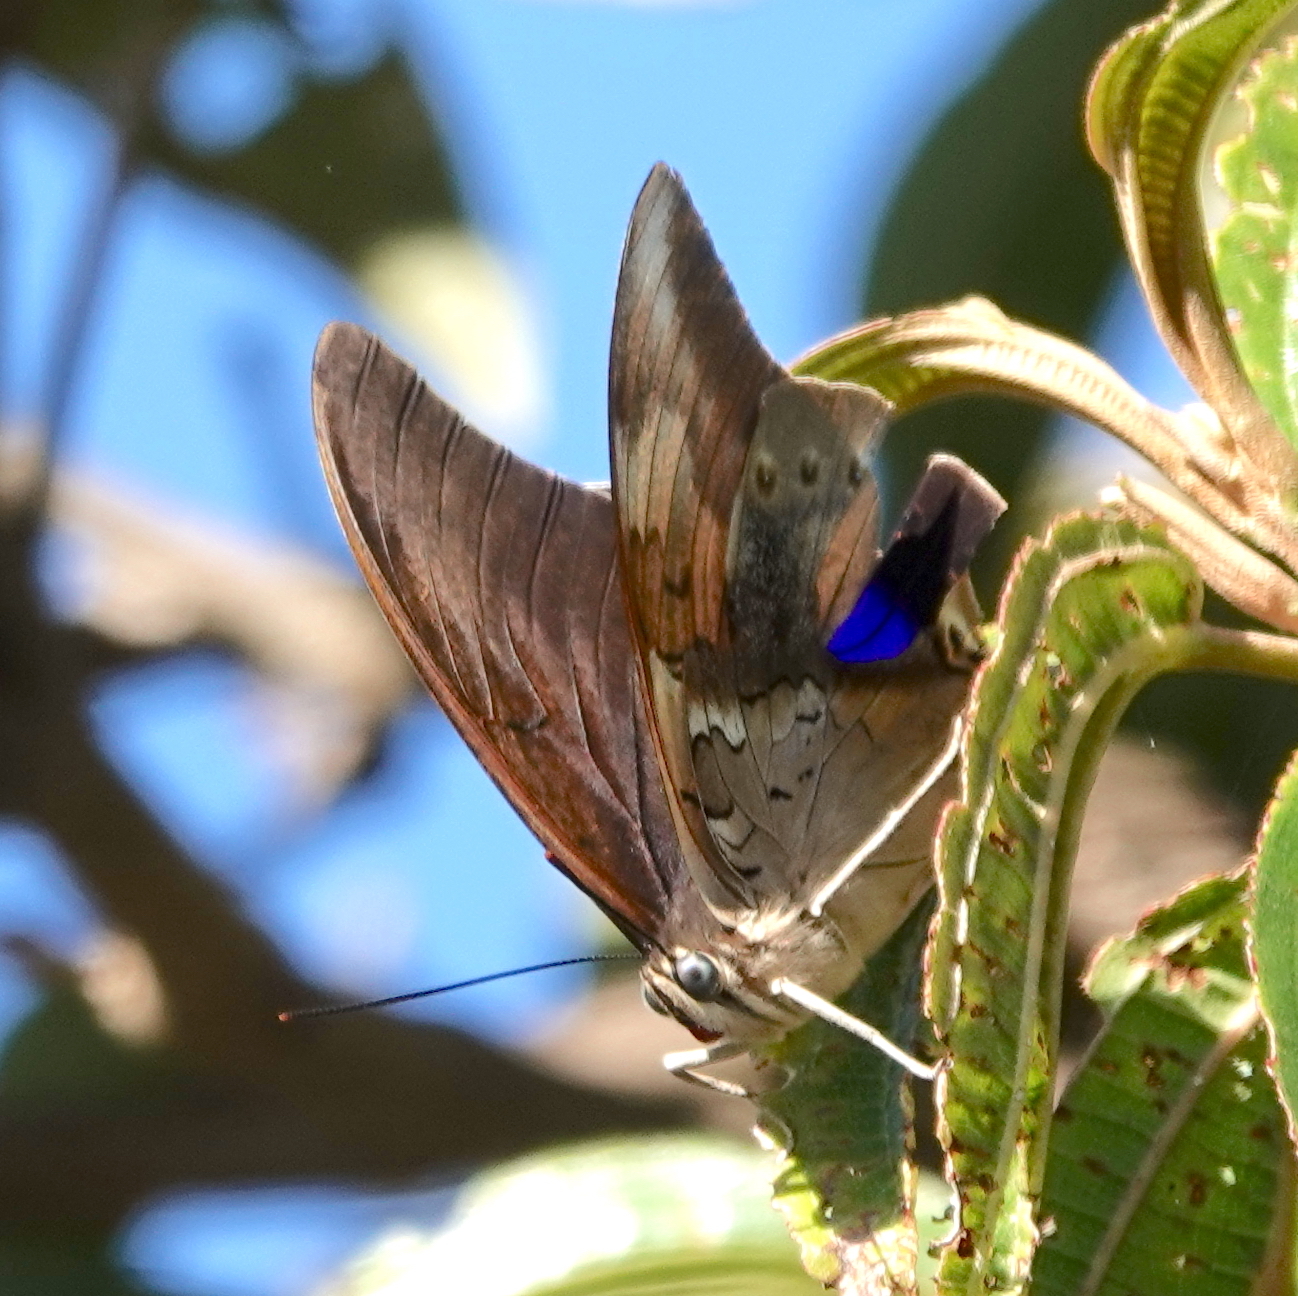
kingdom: Animalia
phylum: Arthropoda
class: Insecta
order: Lepidoptera
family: Nymphalidae
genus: Prepona
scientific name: Prepona
